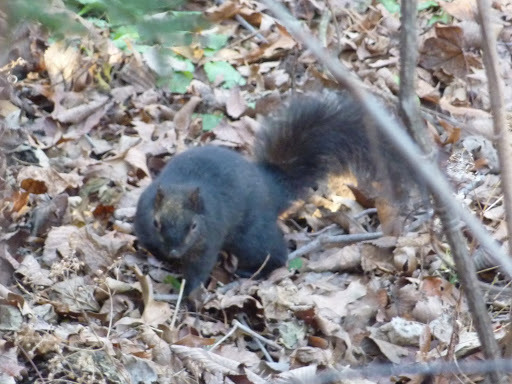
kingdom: Animalia
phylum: Chordata
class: Mammalia
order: Rodentia
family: Sciuridae
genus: Sciurus
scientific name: Sciurus carolinensis
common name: Eastern gray squirrel
